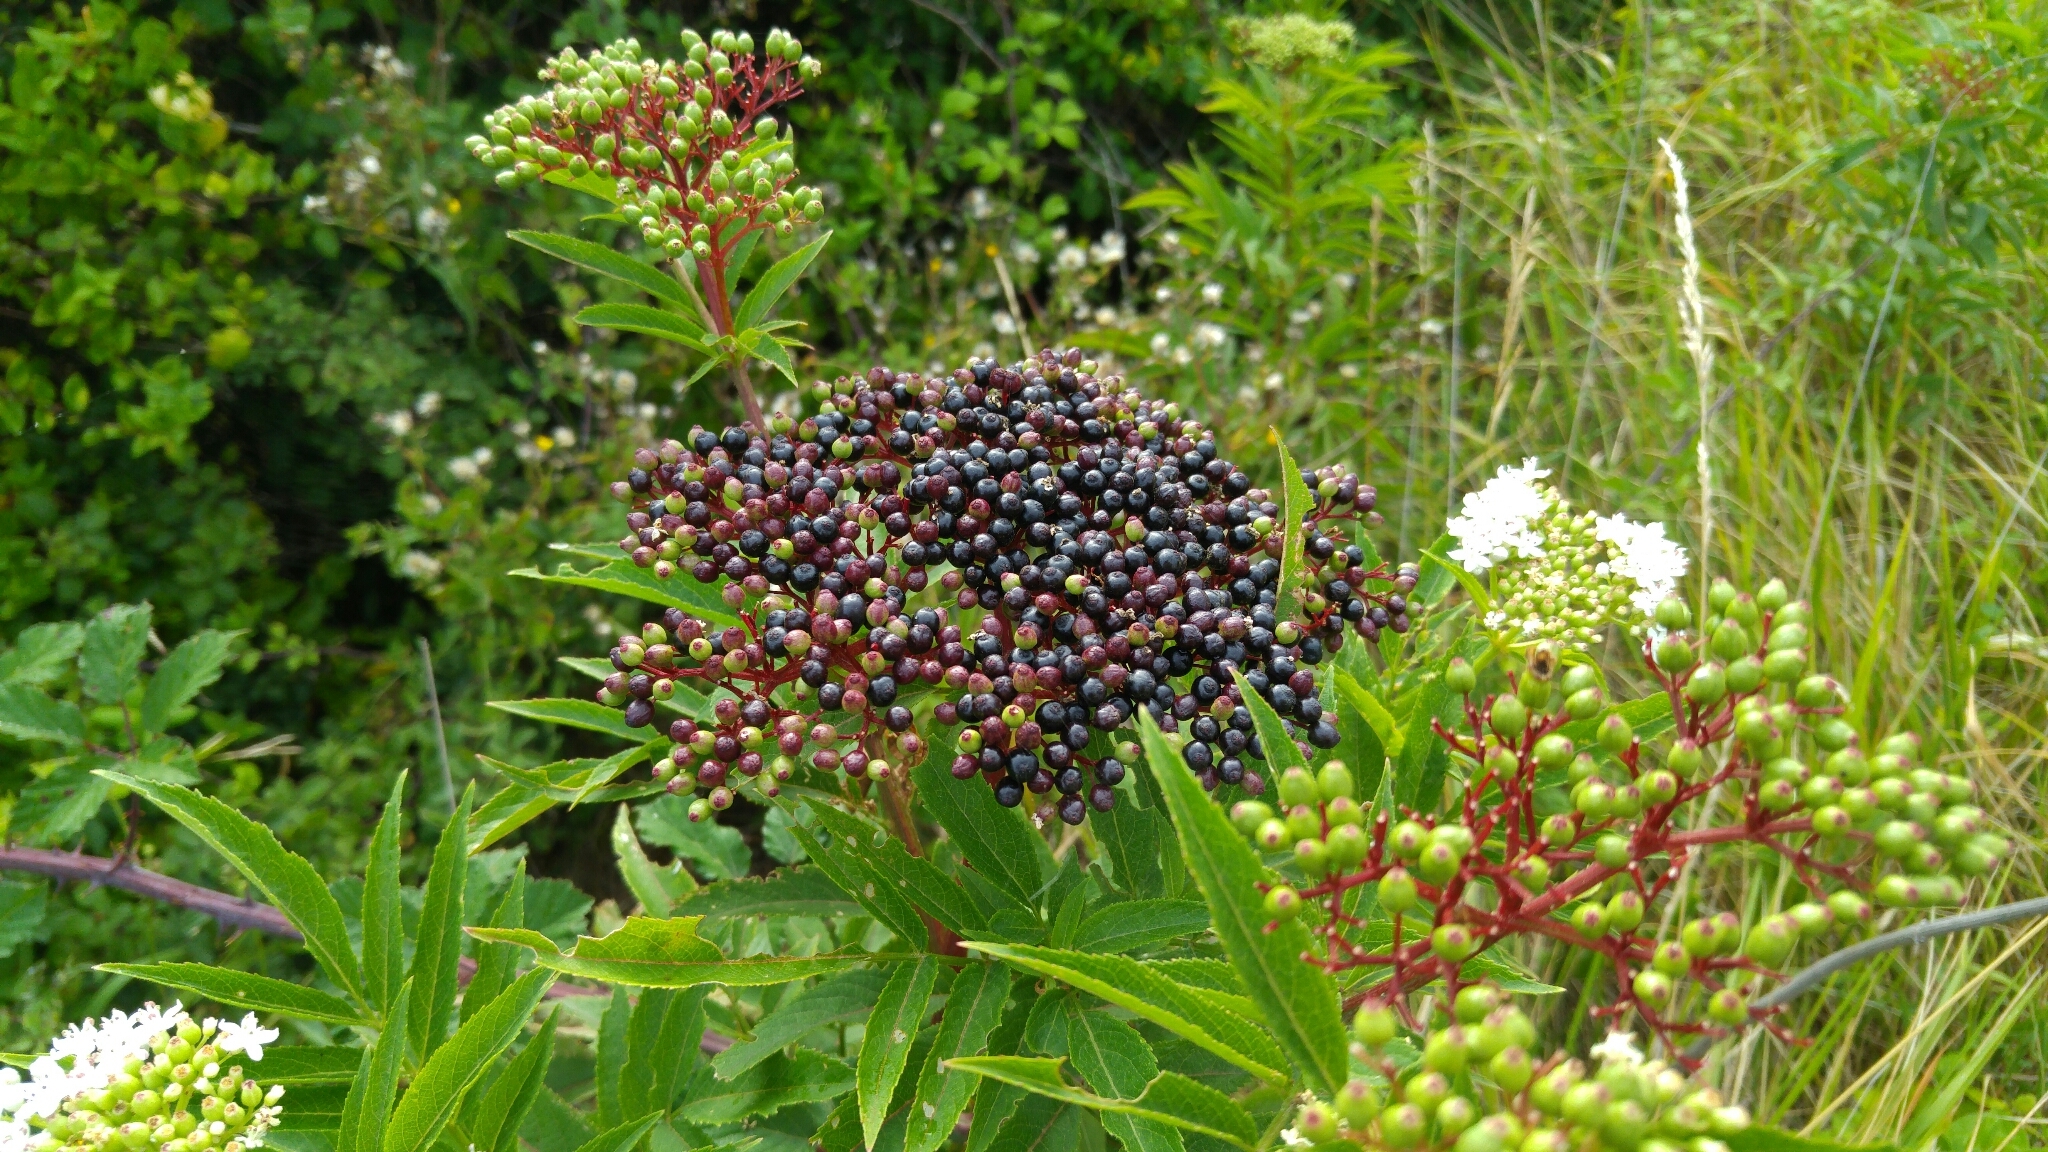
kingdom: Plantae
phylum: Tracheophyta
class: Magnoliopsida
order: Dipsacales
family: Viburnaceae
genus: Sambucus
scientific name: Sambucus ebulus
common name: Dwarf elder
